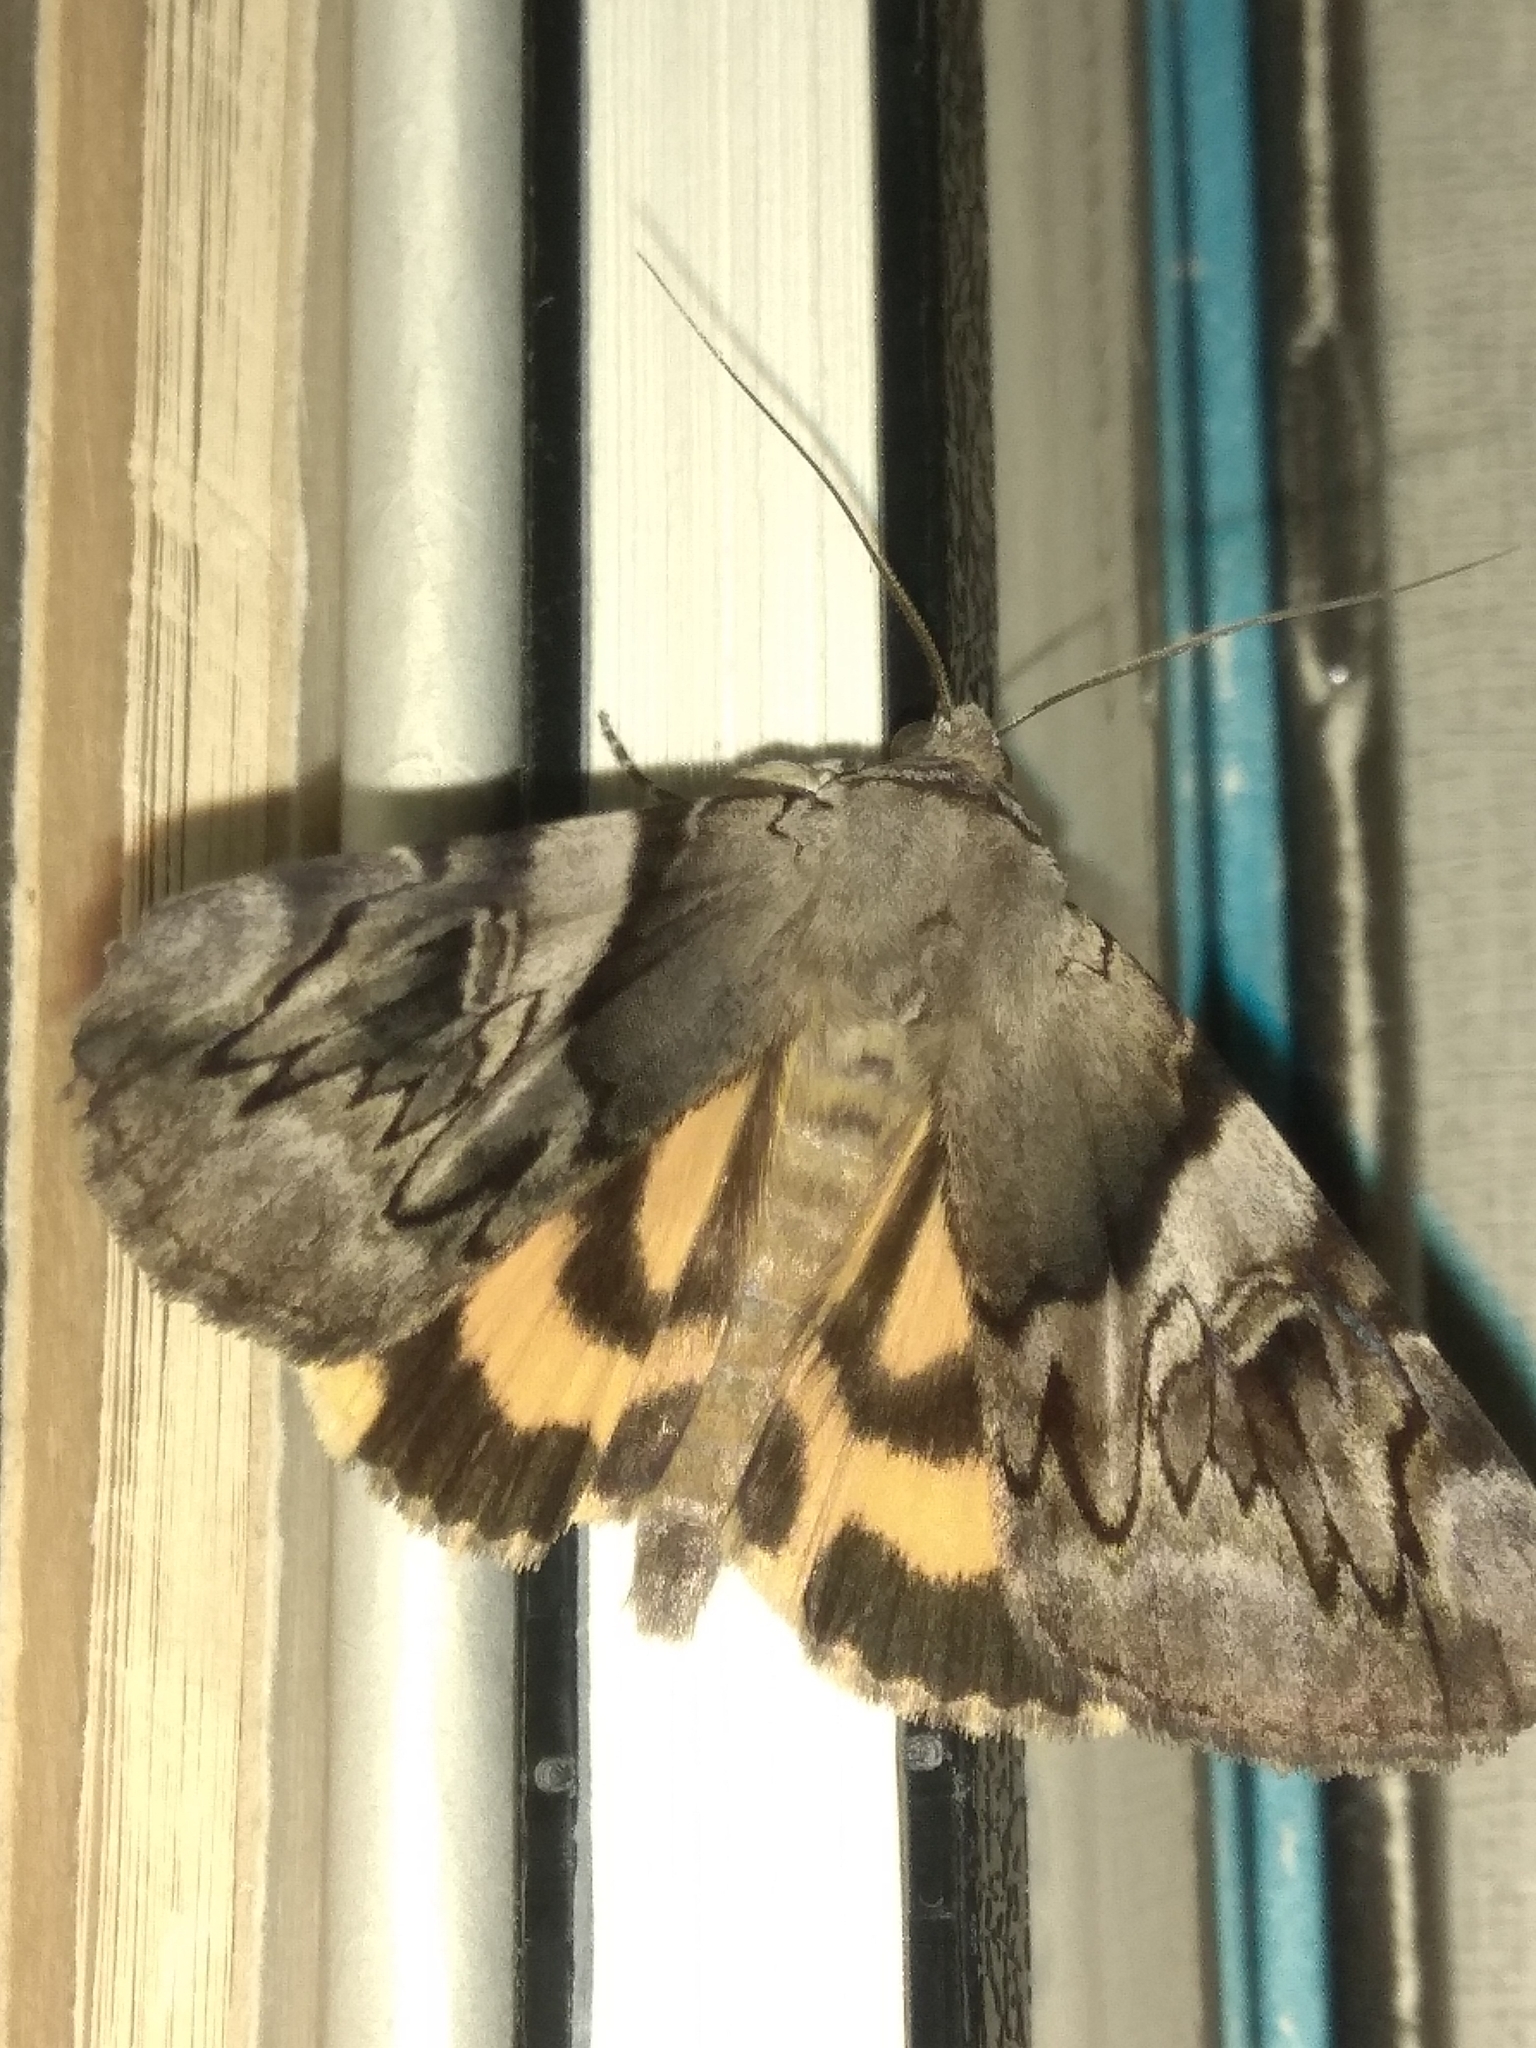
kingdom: Animalia
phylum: Arthropoda
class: Insecta
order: Lepidoptera
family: Erebidae
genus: Catocala
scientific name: Catocala fulminea
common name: Yellow bands underwing
